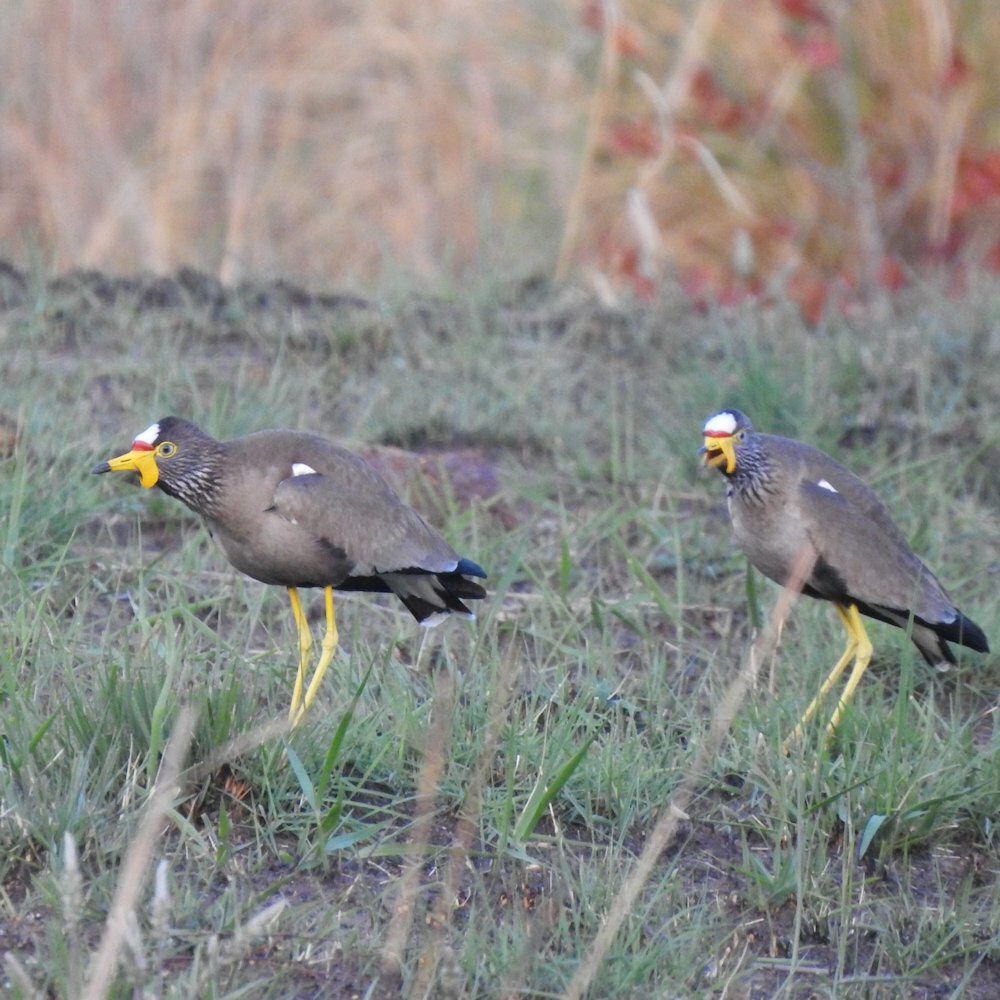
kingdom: Animalia
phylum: Chordata
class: Aves
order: Charadriiformes
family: Charadriidae
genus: Vanellus
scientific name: Vanellus senegallus
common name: African wattled lapwing
